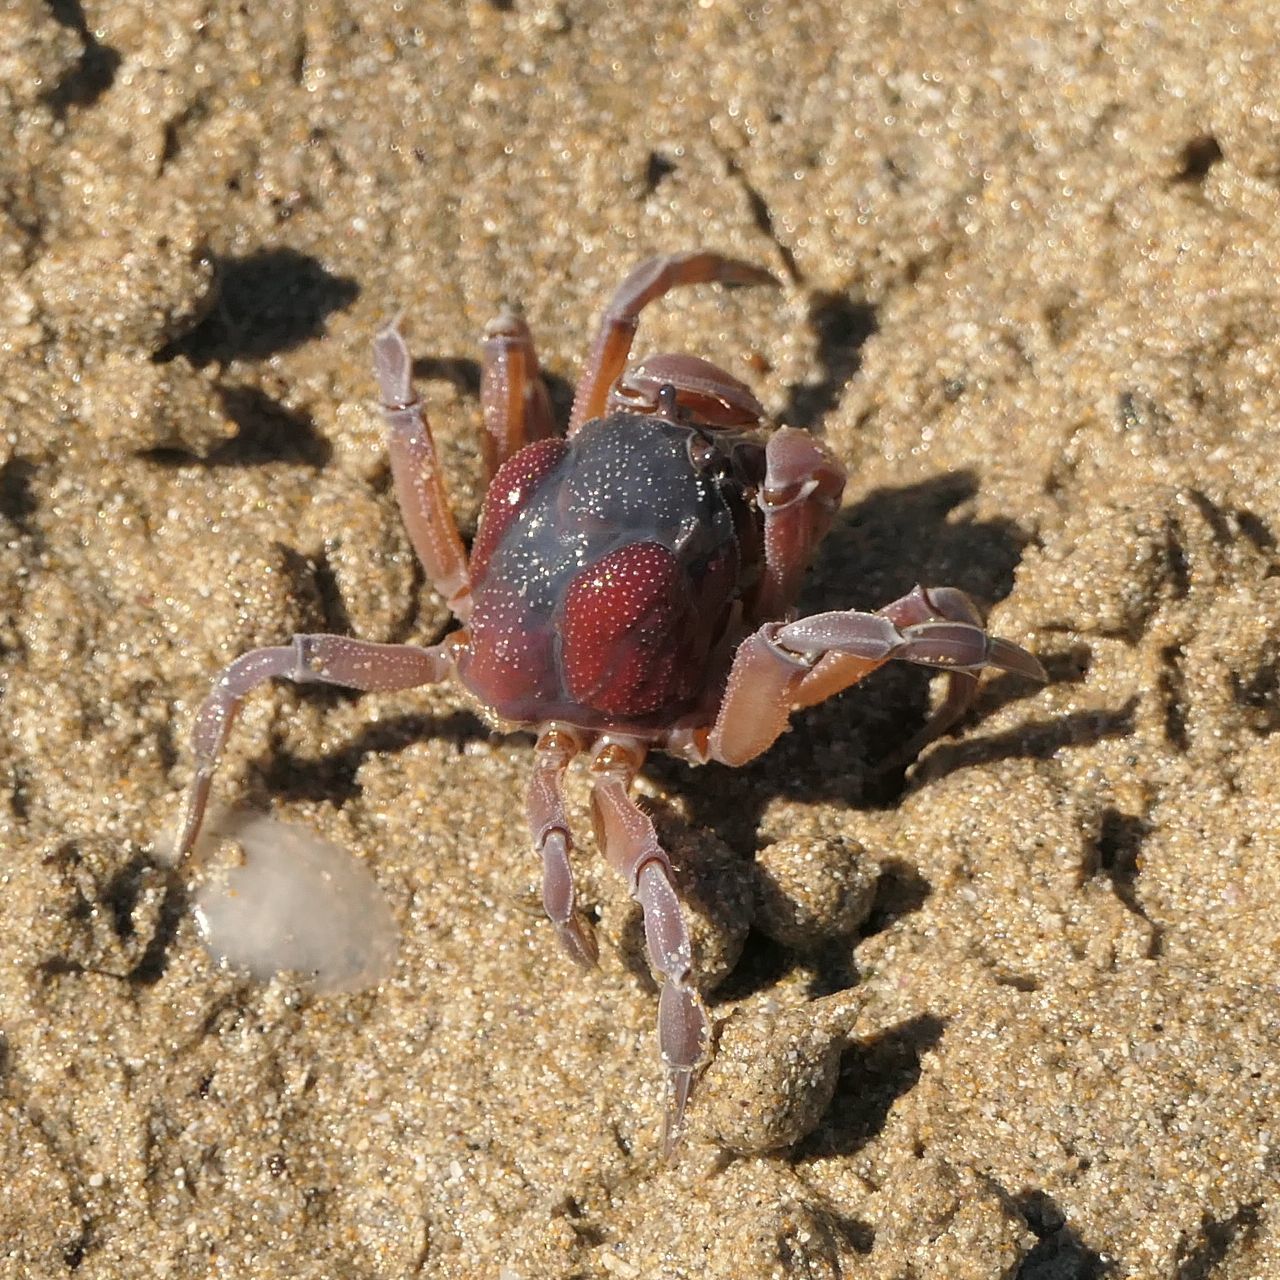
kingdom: Animalia
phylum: Arthropoda
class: Malacostraca
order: Decapoda
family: Mictyridae
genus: Mictyris
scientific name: Mictyris platycheles
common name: Dark blue soldier crab
